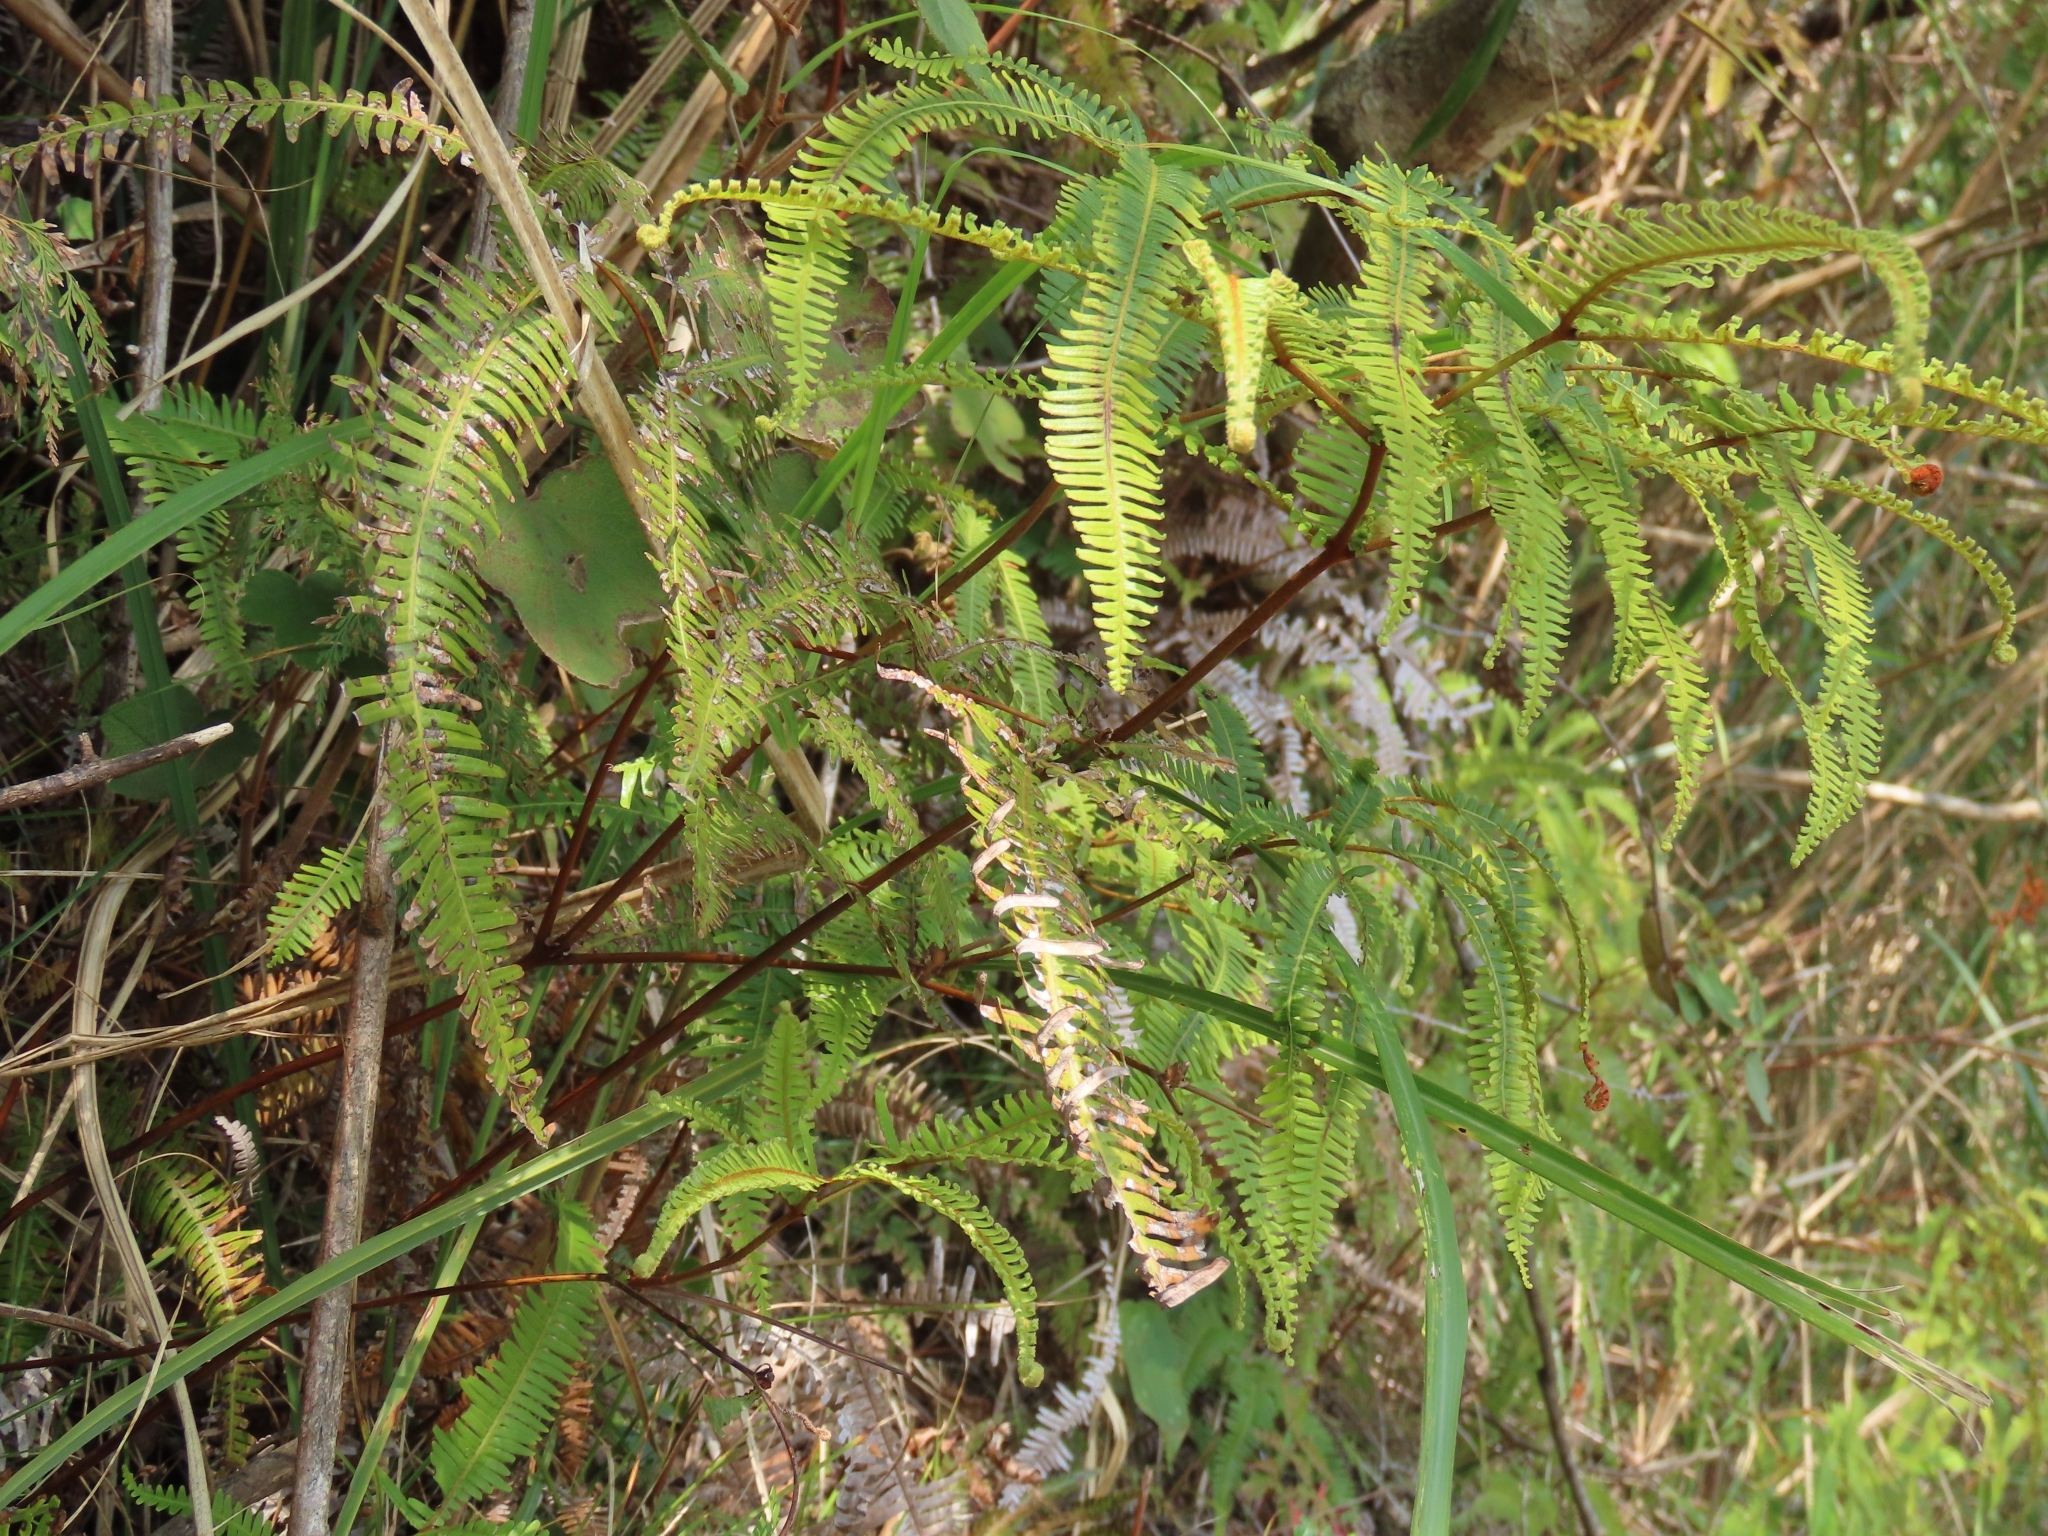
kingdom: Plantae
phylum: Tracheophyta
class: Polypodiopsida
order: Gleicheniales
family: Gleicheniaceae
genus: Dicranopteris
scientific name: Dicranopteris linearis
